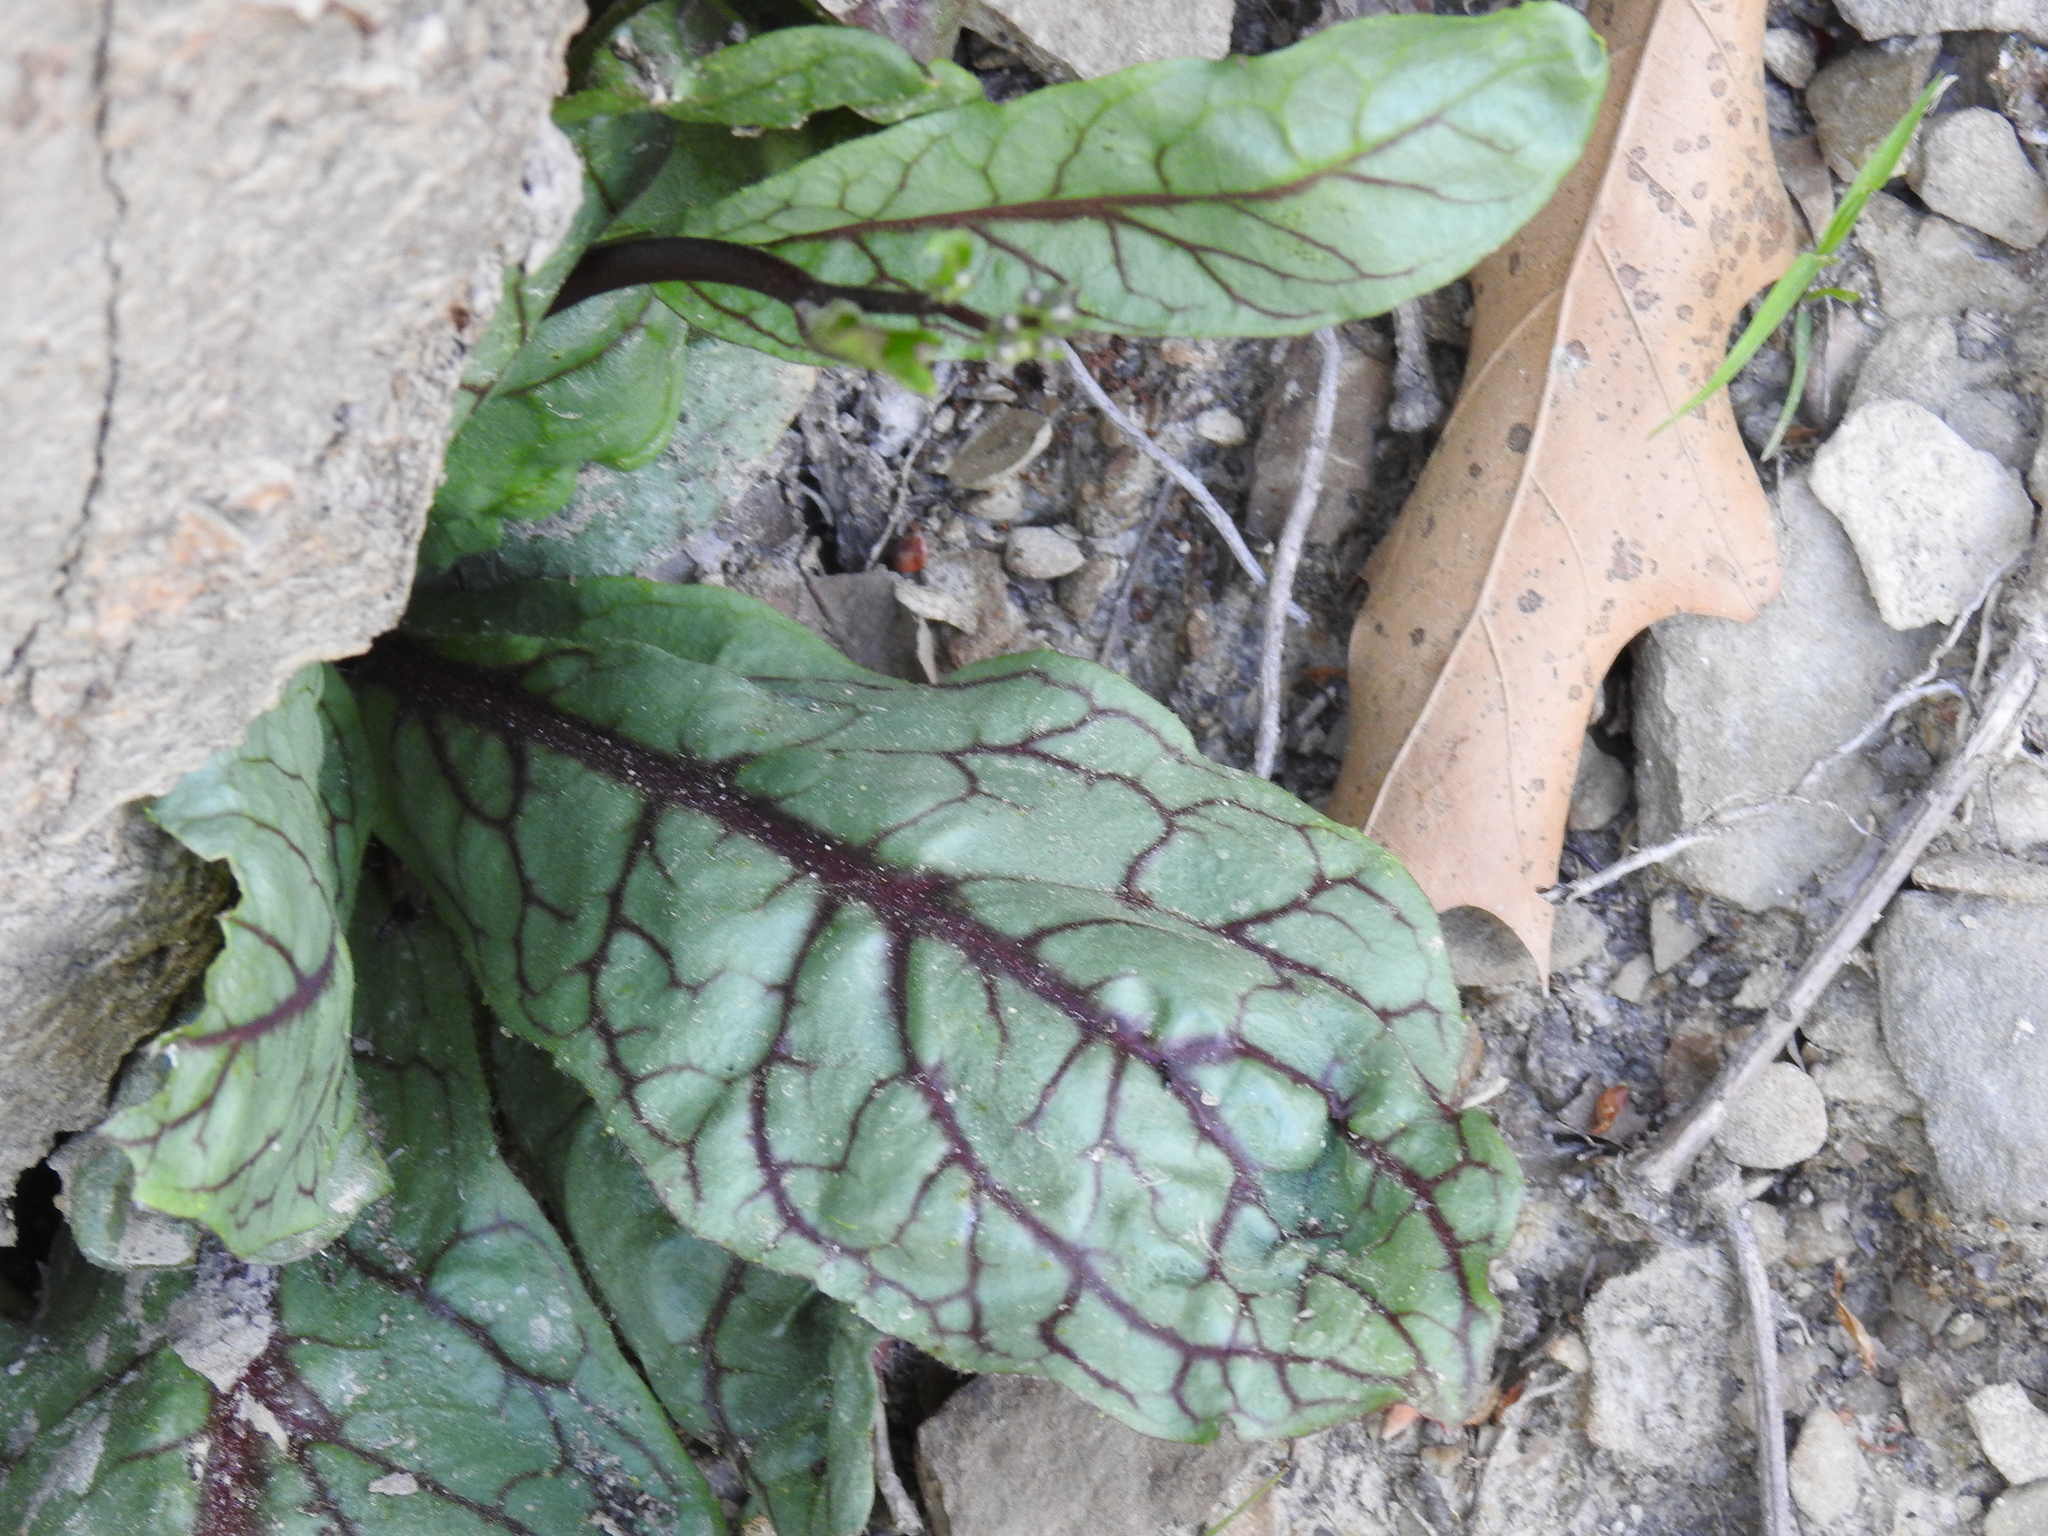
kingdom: Plantae
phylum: Tracheophyta
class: Magnoliopsida
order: Asterales
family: Asteraceae
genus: Hieracium
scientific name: Hieracium venosum
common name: Rattlesnake hawkweed
